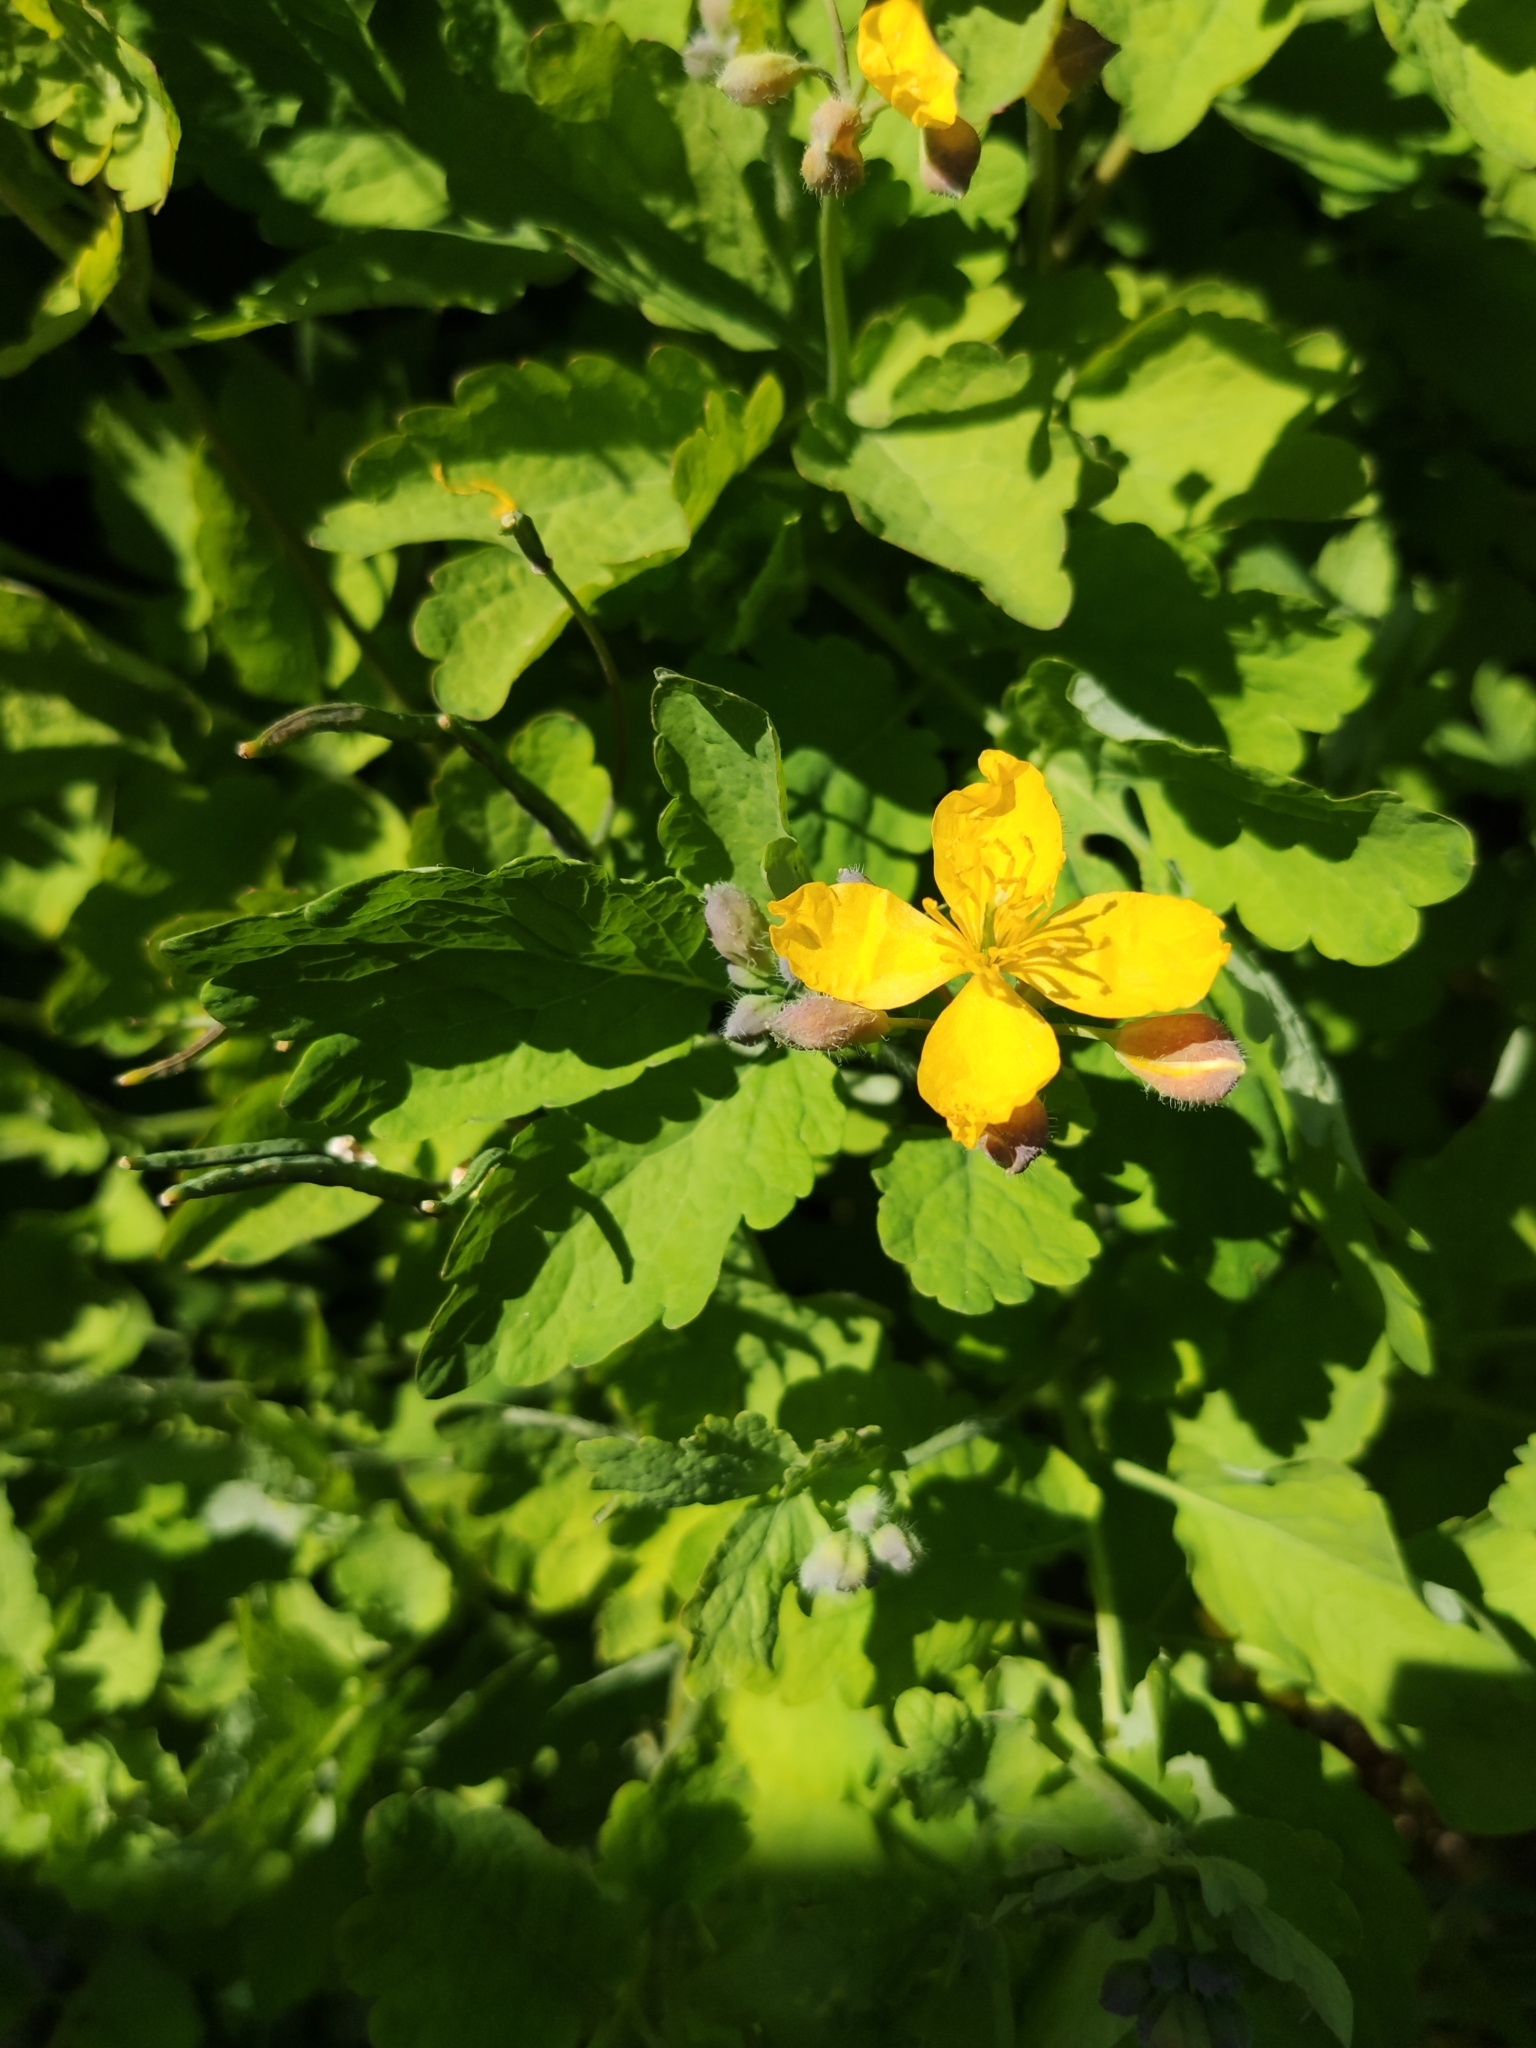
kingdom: Plantae
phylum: Tracheophyta
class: Magnoliopsida
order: Ranunculales
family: Papaveraceae
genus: Chelidonium
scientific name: Chelidonium majus
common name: Greater celandine
